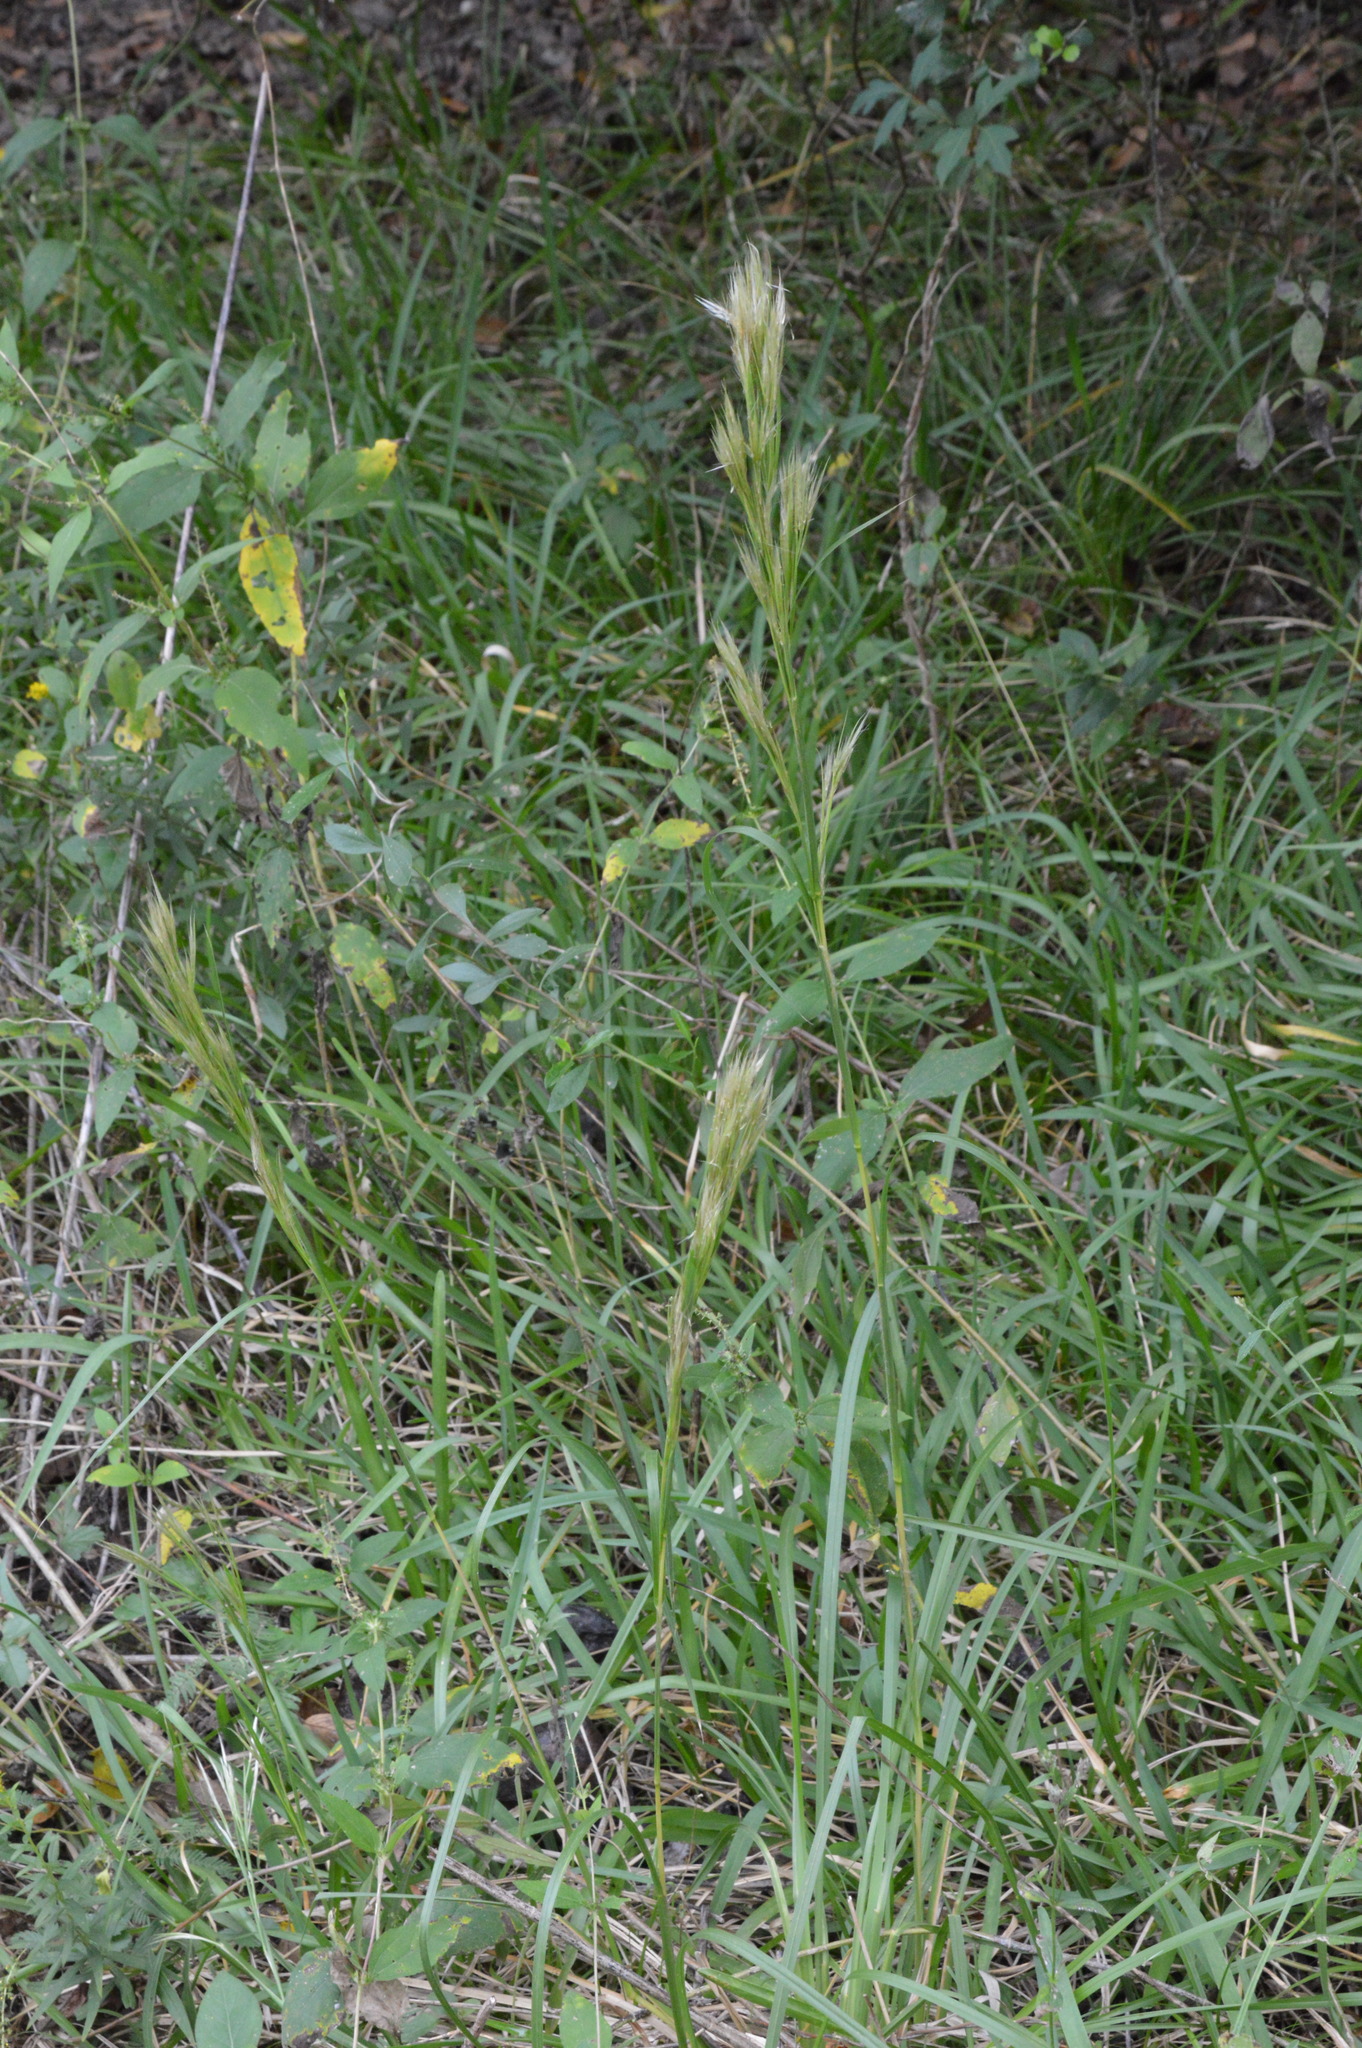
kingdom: Plantae
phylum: Tracheophyta
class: Liliopsida
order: Poales
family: Poaceae
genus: Andropogon
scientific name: Andropogon tenuispatheus
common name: Bushy bluestem
